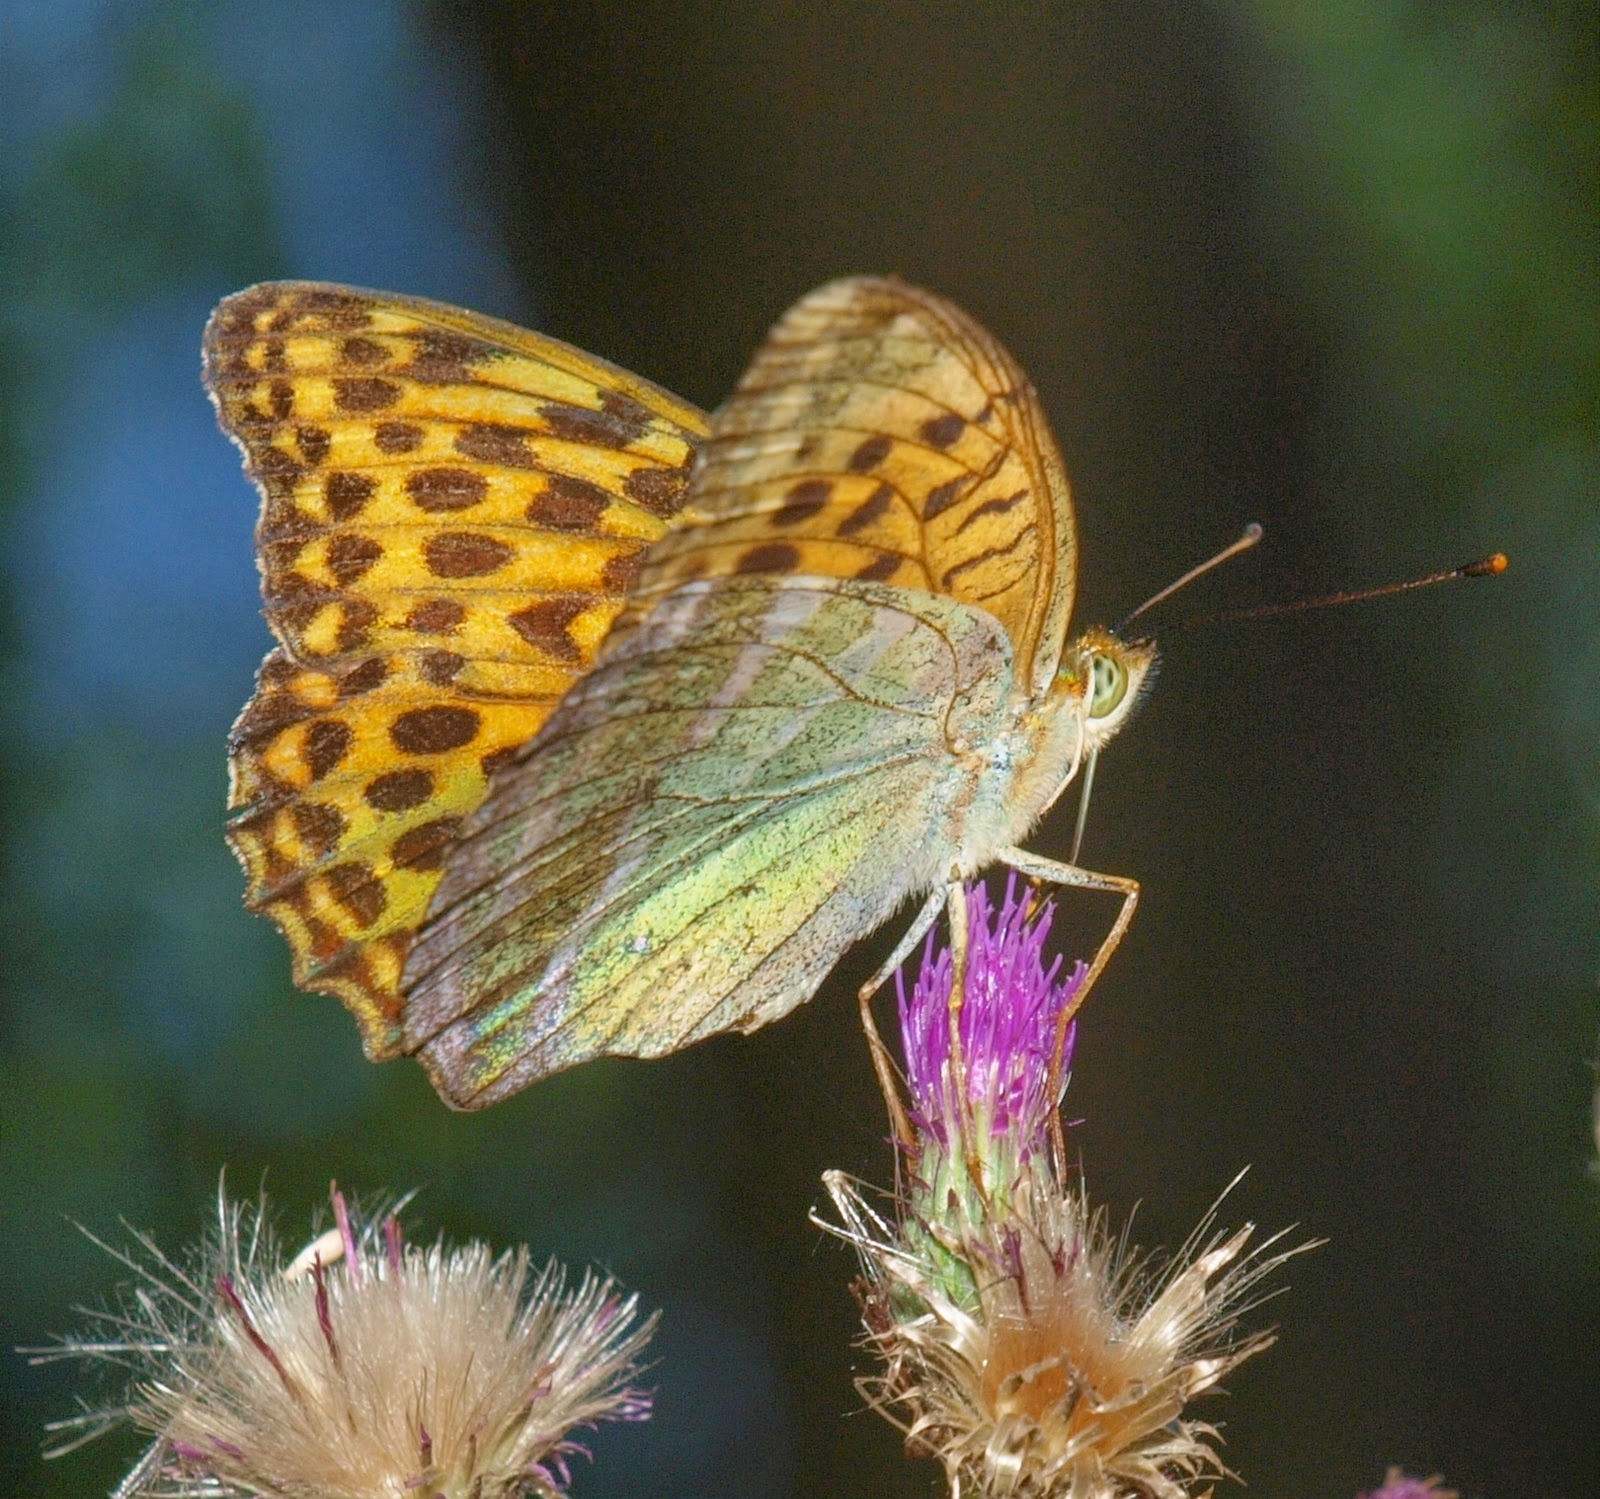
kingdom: Animalia
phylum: Arthropoda
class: Insecta
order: Lepidoptera
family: Nymphalidae
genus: Argynnis
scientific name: Argynnis paphia
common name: Silver-washed fritillary
